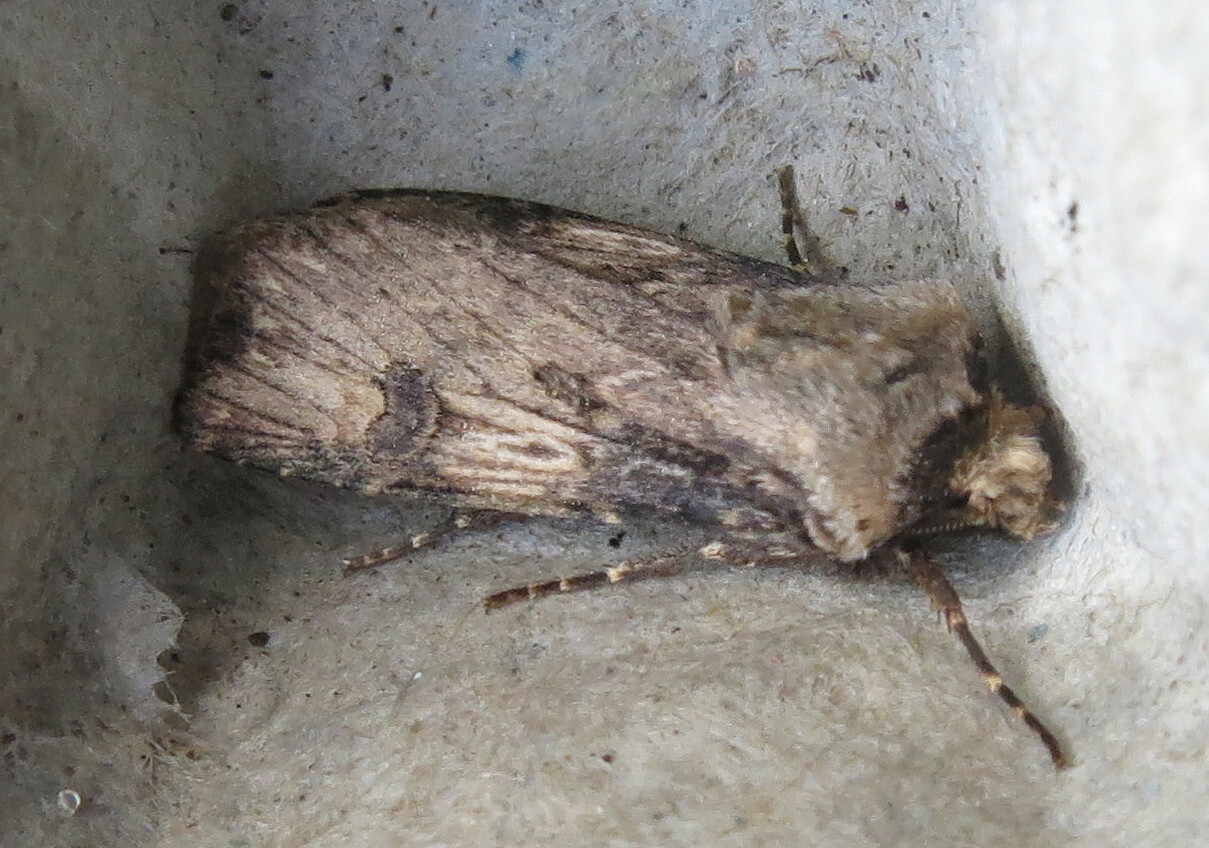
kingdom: Animalia
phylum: Arthropoda
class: Insecta
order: Lepidoptera
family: Noctuidae
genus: Agrotis
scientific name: Agrotis puta
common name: Shuttle-shaped dart
